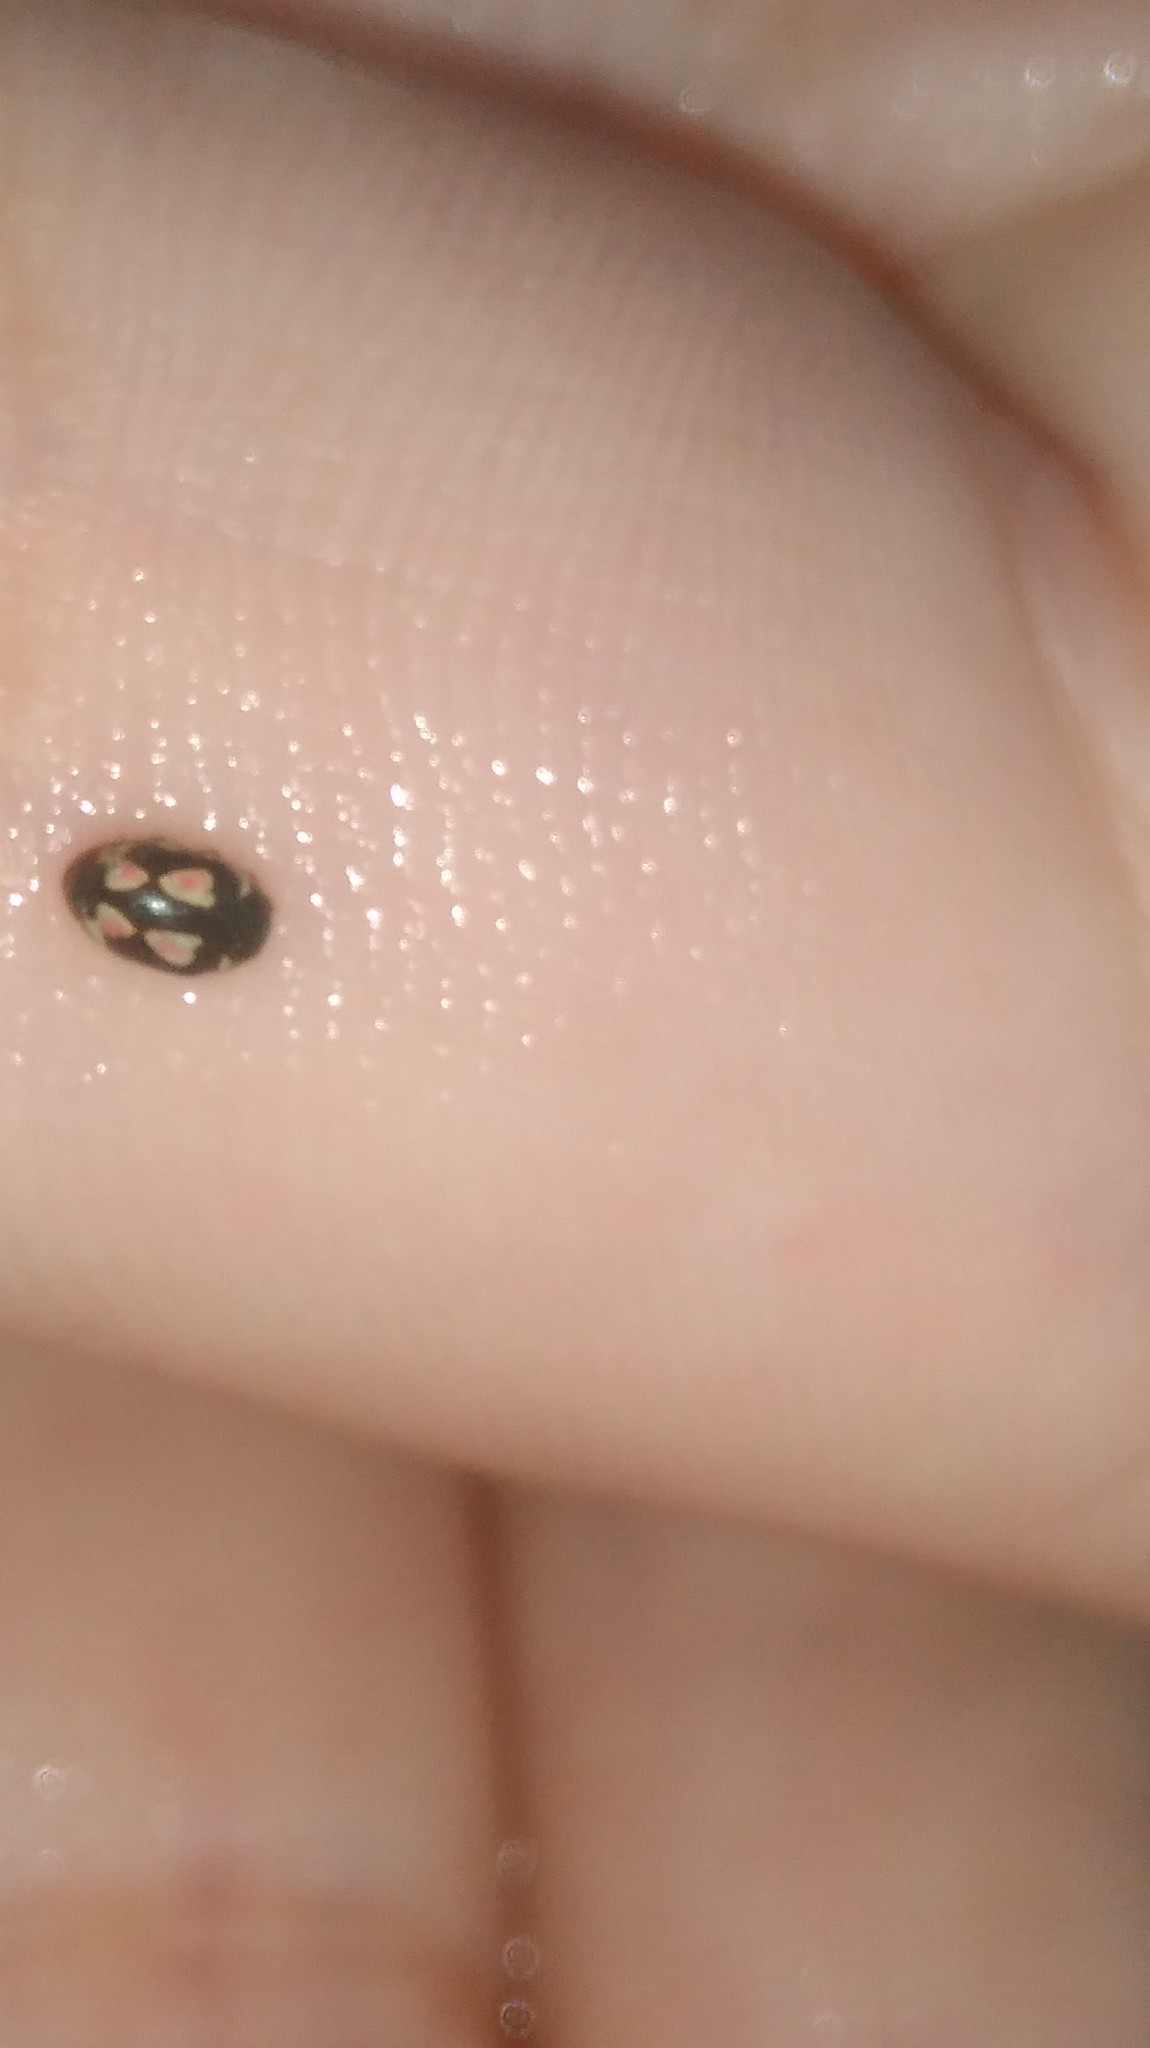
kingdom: Animalia
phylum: Arthropoda
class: Insecta
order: Coleoptera
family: Coccinellidae
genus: Hyperaspis
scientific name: Hyperaspis festiva
